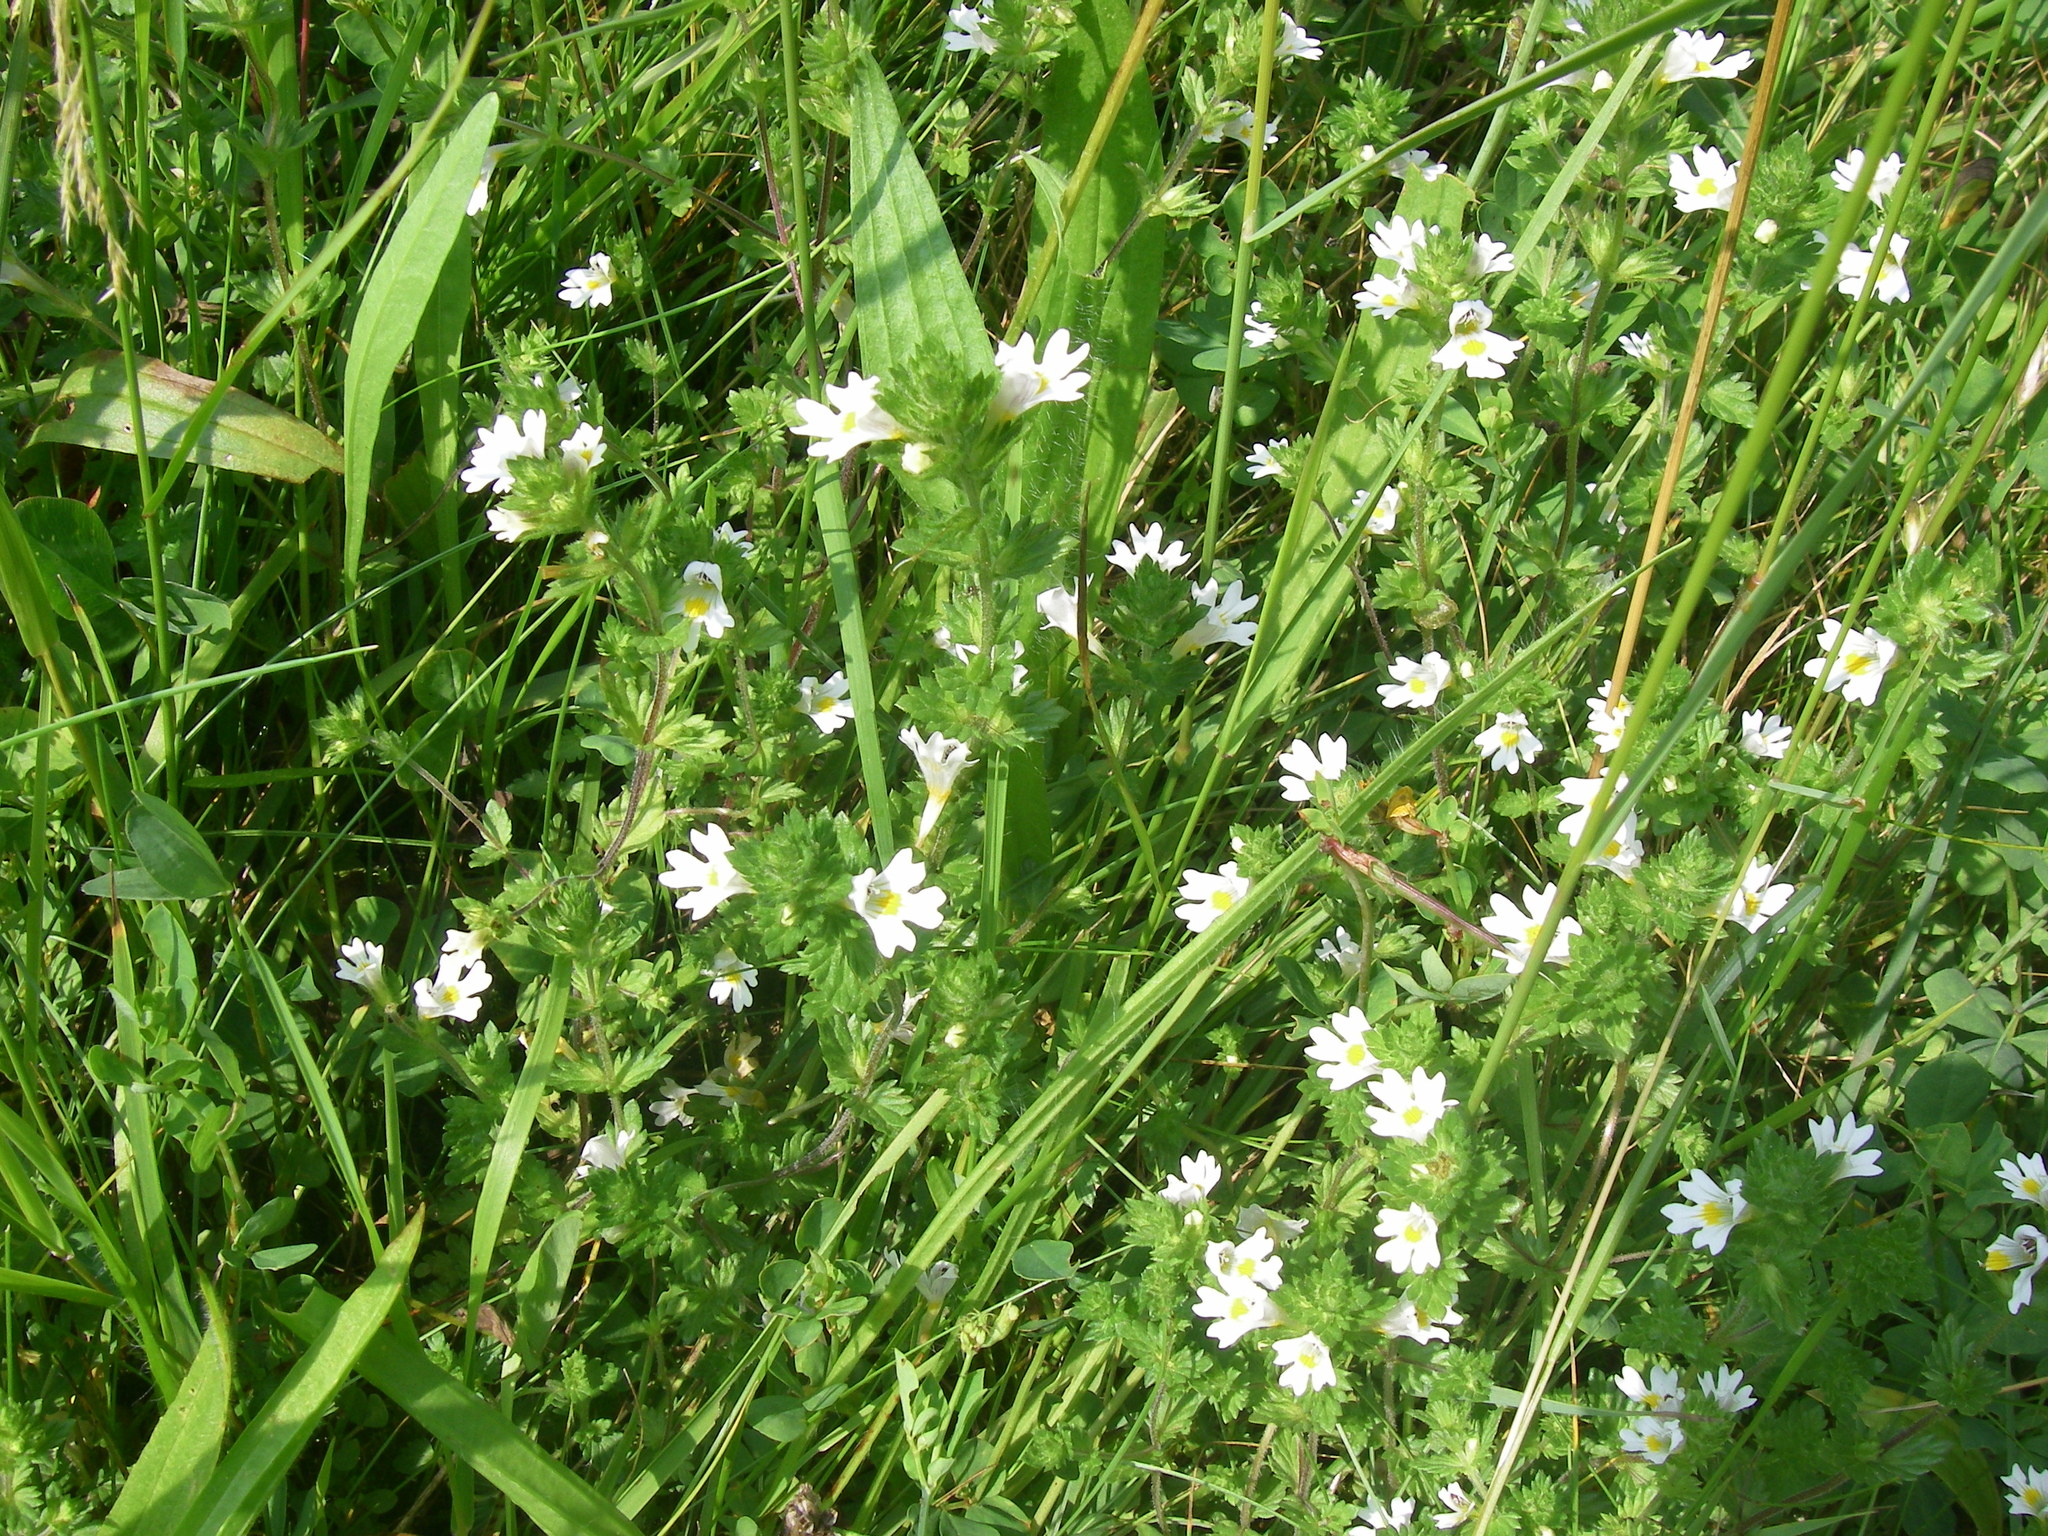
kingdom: Plantae
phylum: Tracheophyta
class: Magnoliopsida
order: Lamiales
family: Orobanchaceae
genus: Euphrasia
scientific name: Euphrasia stricta
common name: Drug eyebright
